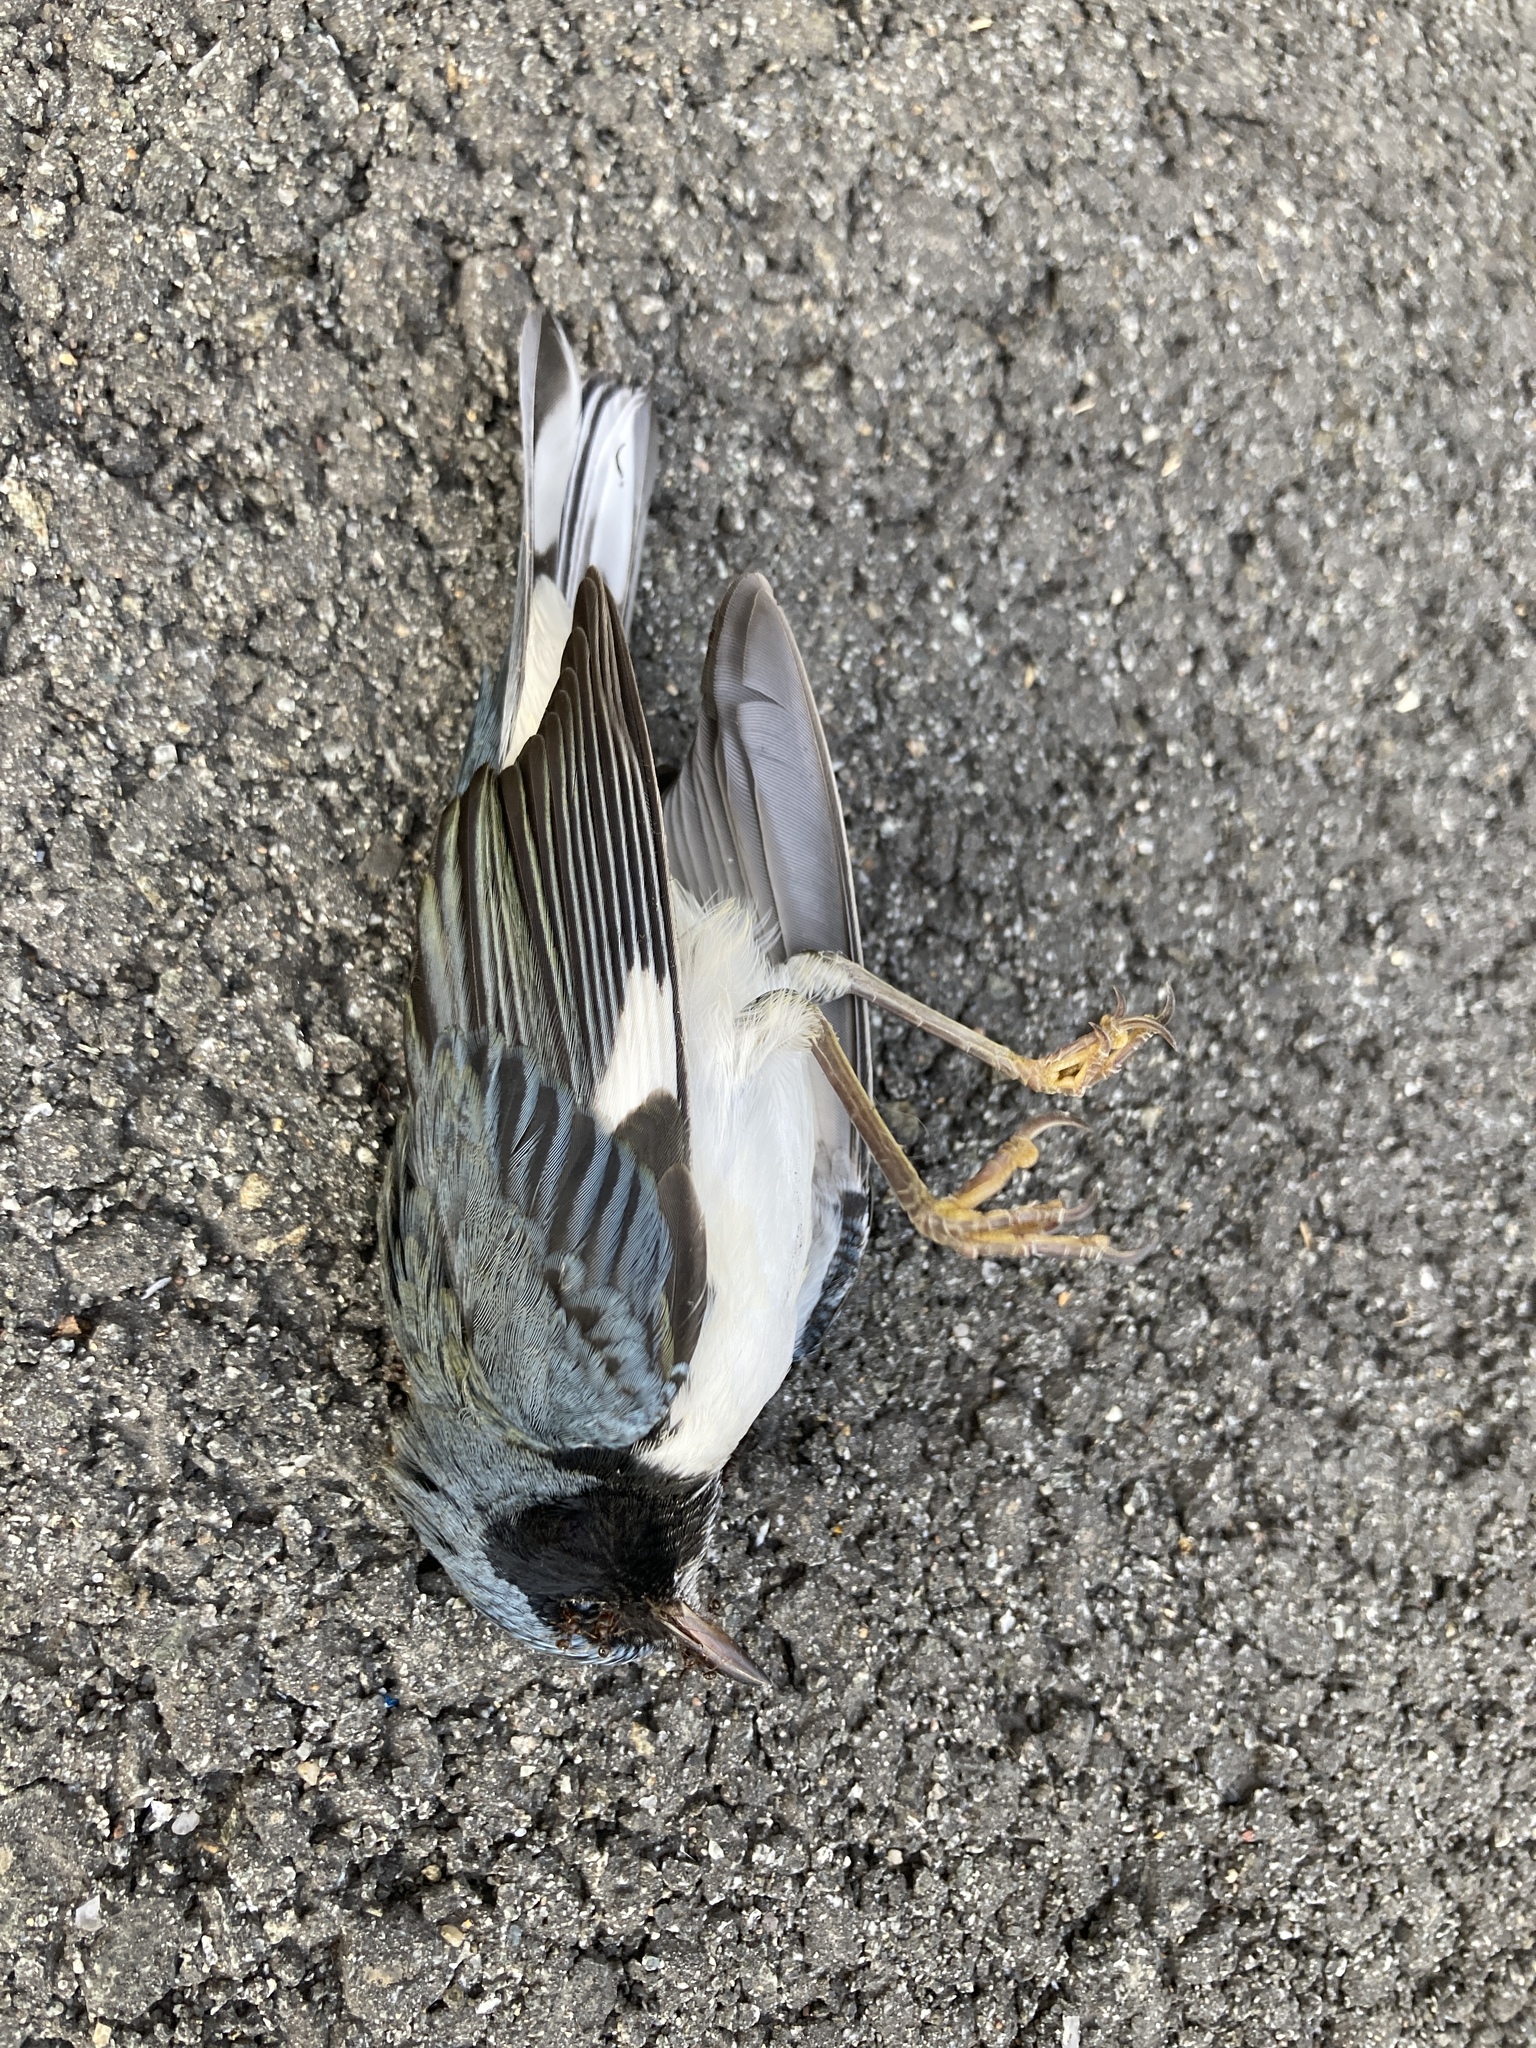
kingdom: Animalia
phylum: Chordata
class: Aves
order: Passeriformes
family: Parulidae
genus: Setophaga
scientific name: Setophaga caerulescens
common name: Black-throated blue warbler
